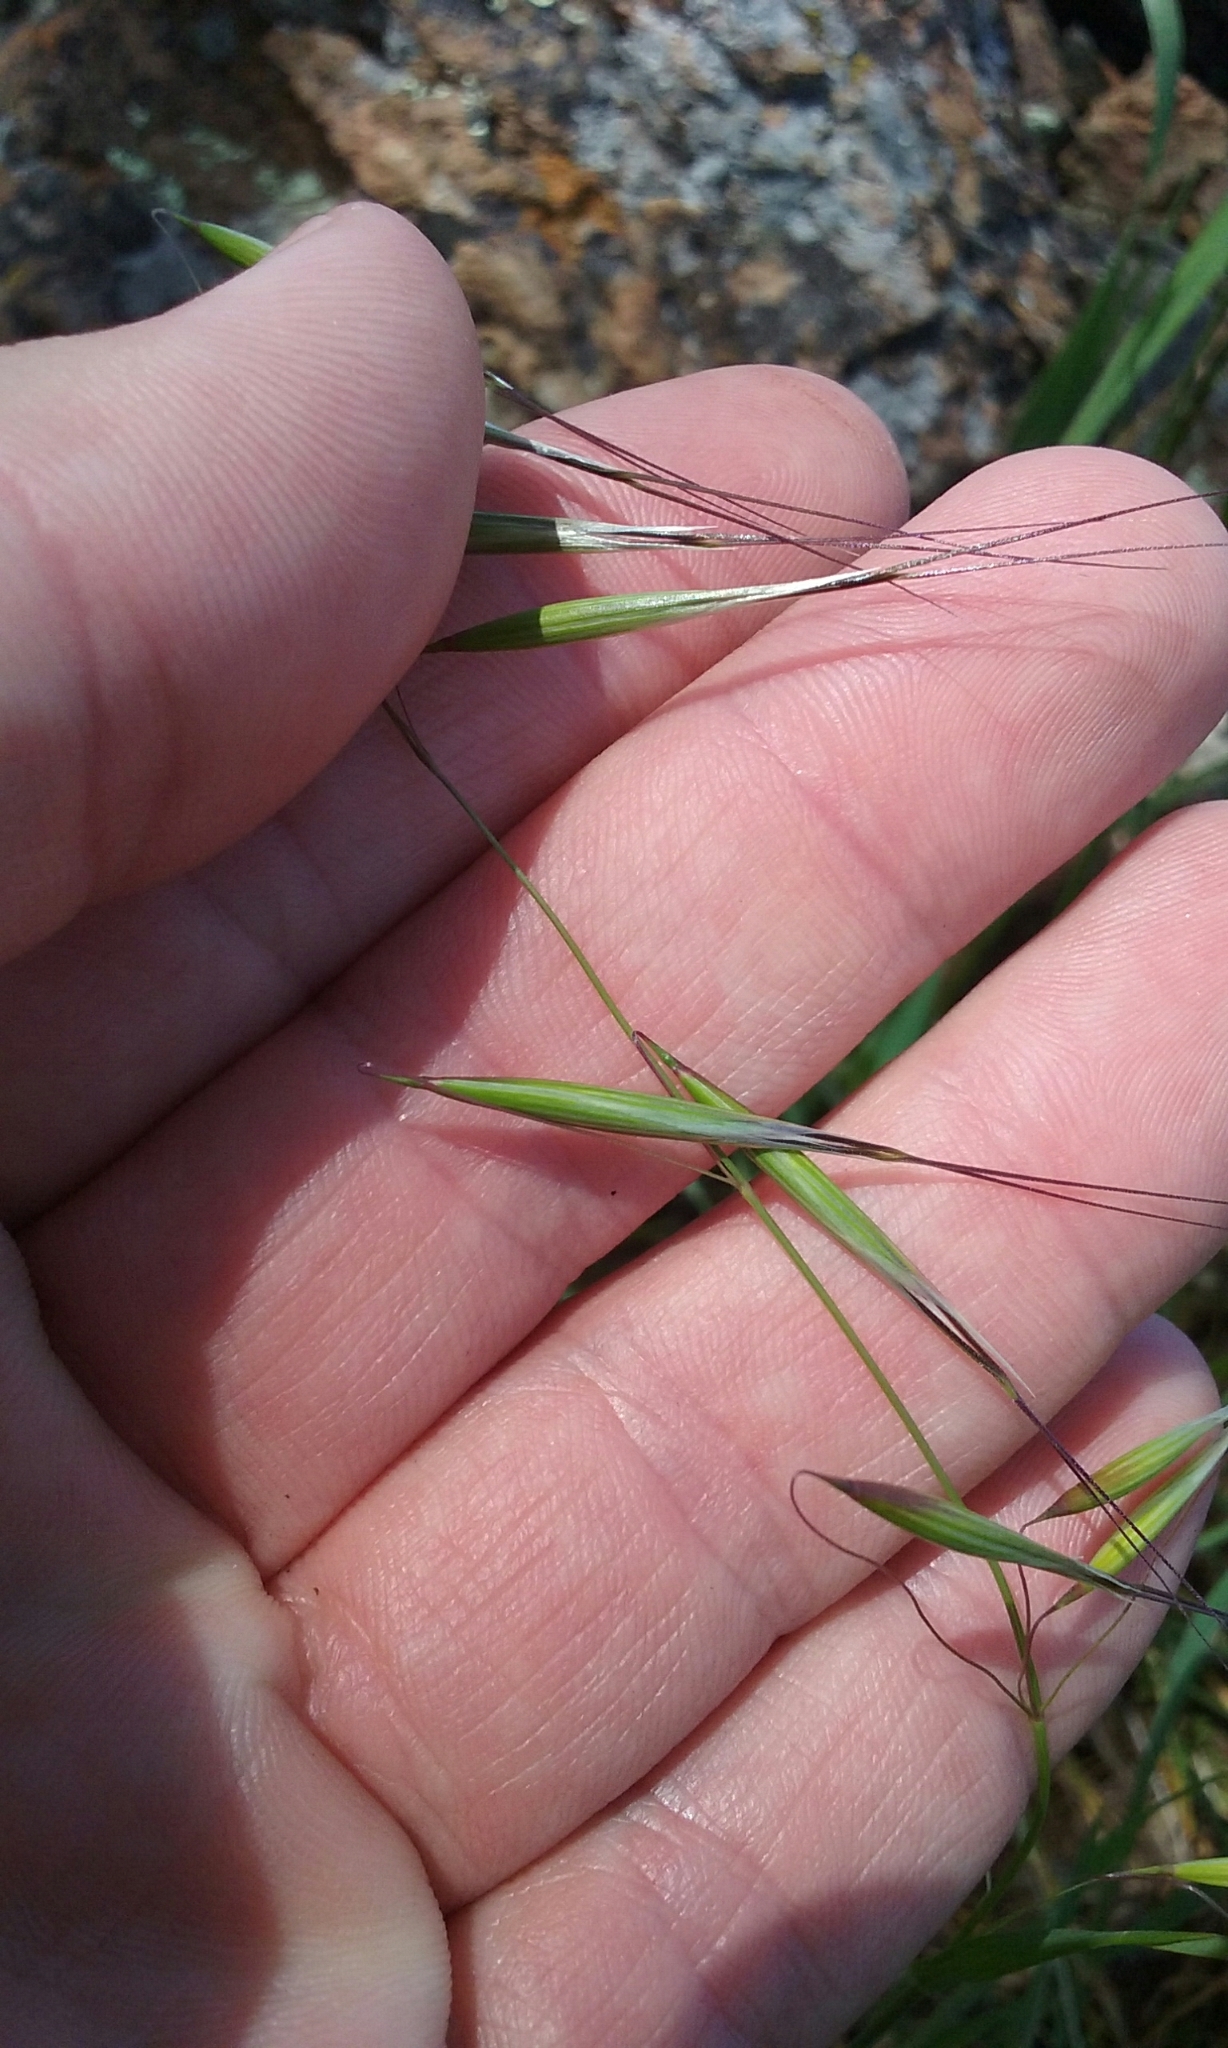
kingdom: Plantae
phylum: Tracheophyta
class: Liliopsida
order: Poales
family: Poaceae
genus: Avena
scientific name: Avena barbata
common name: Slender oat
